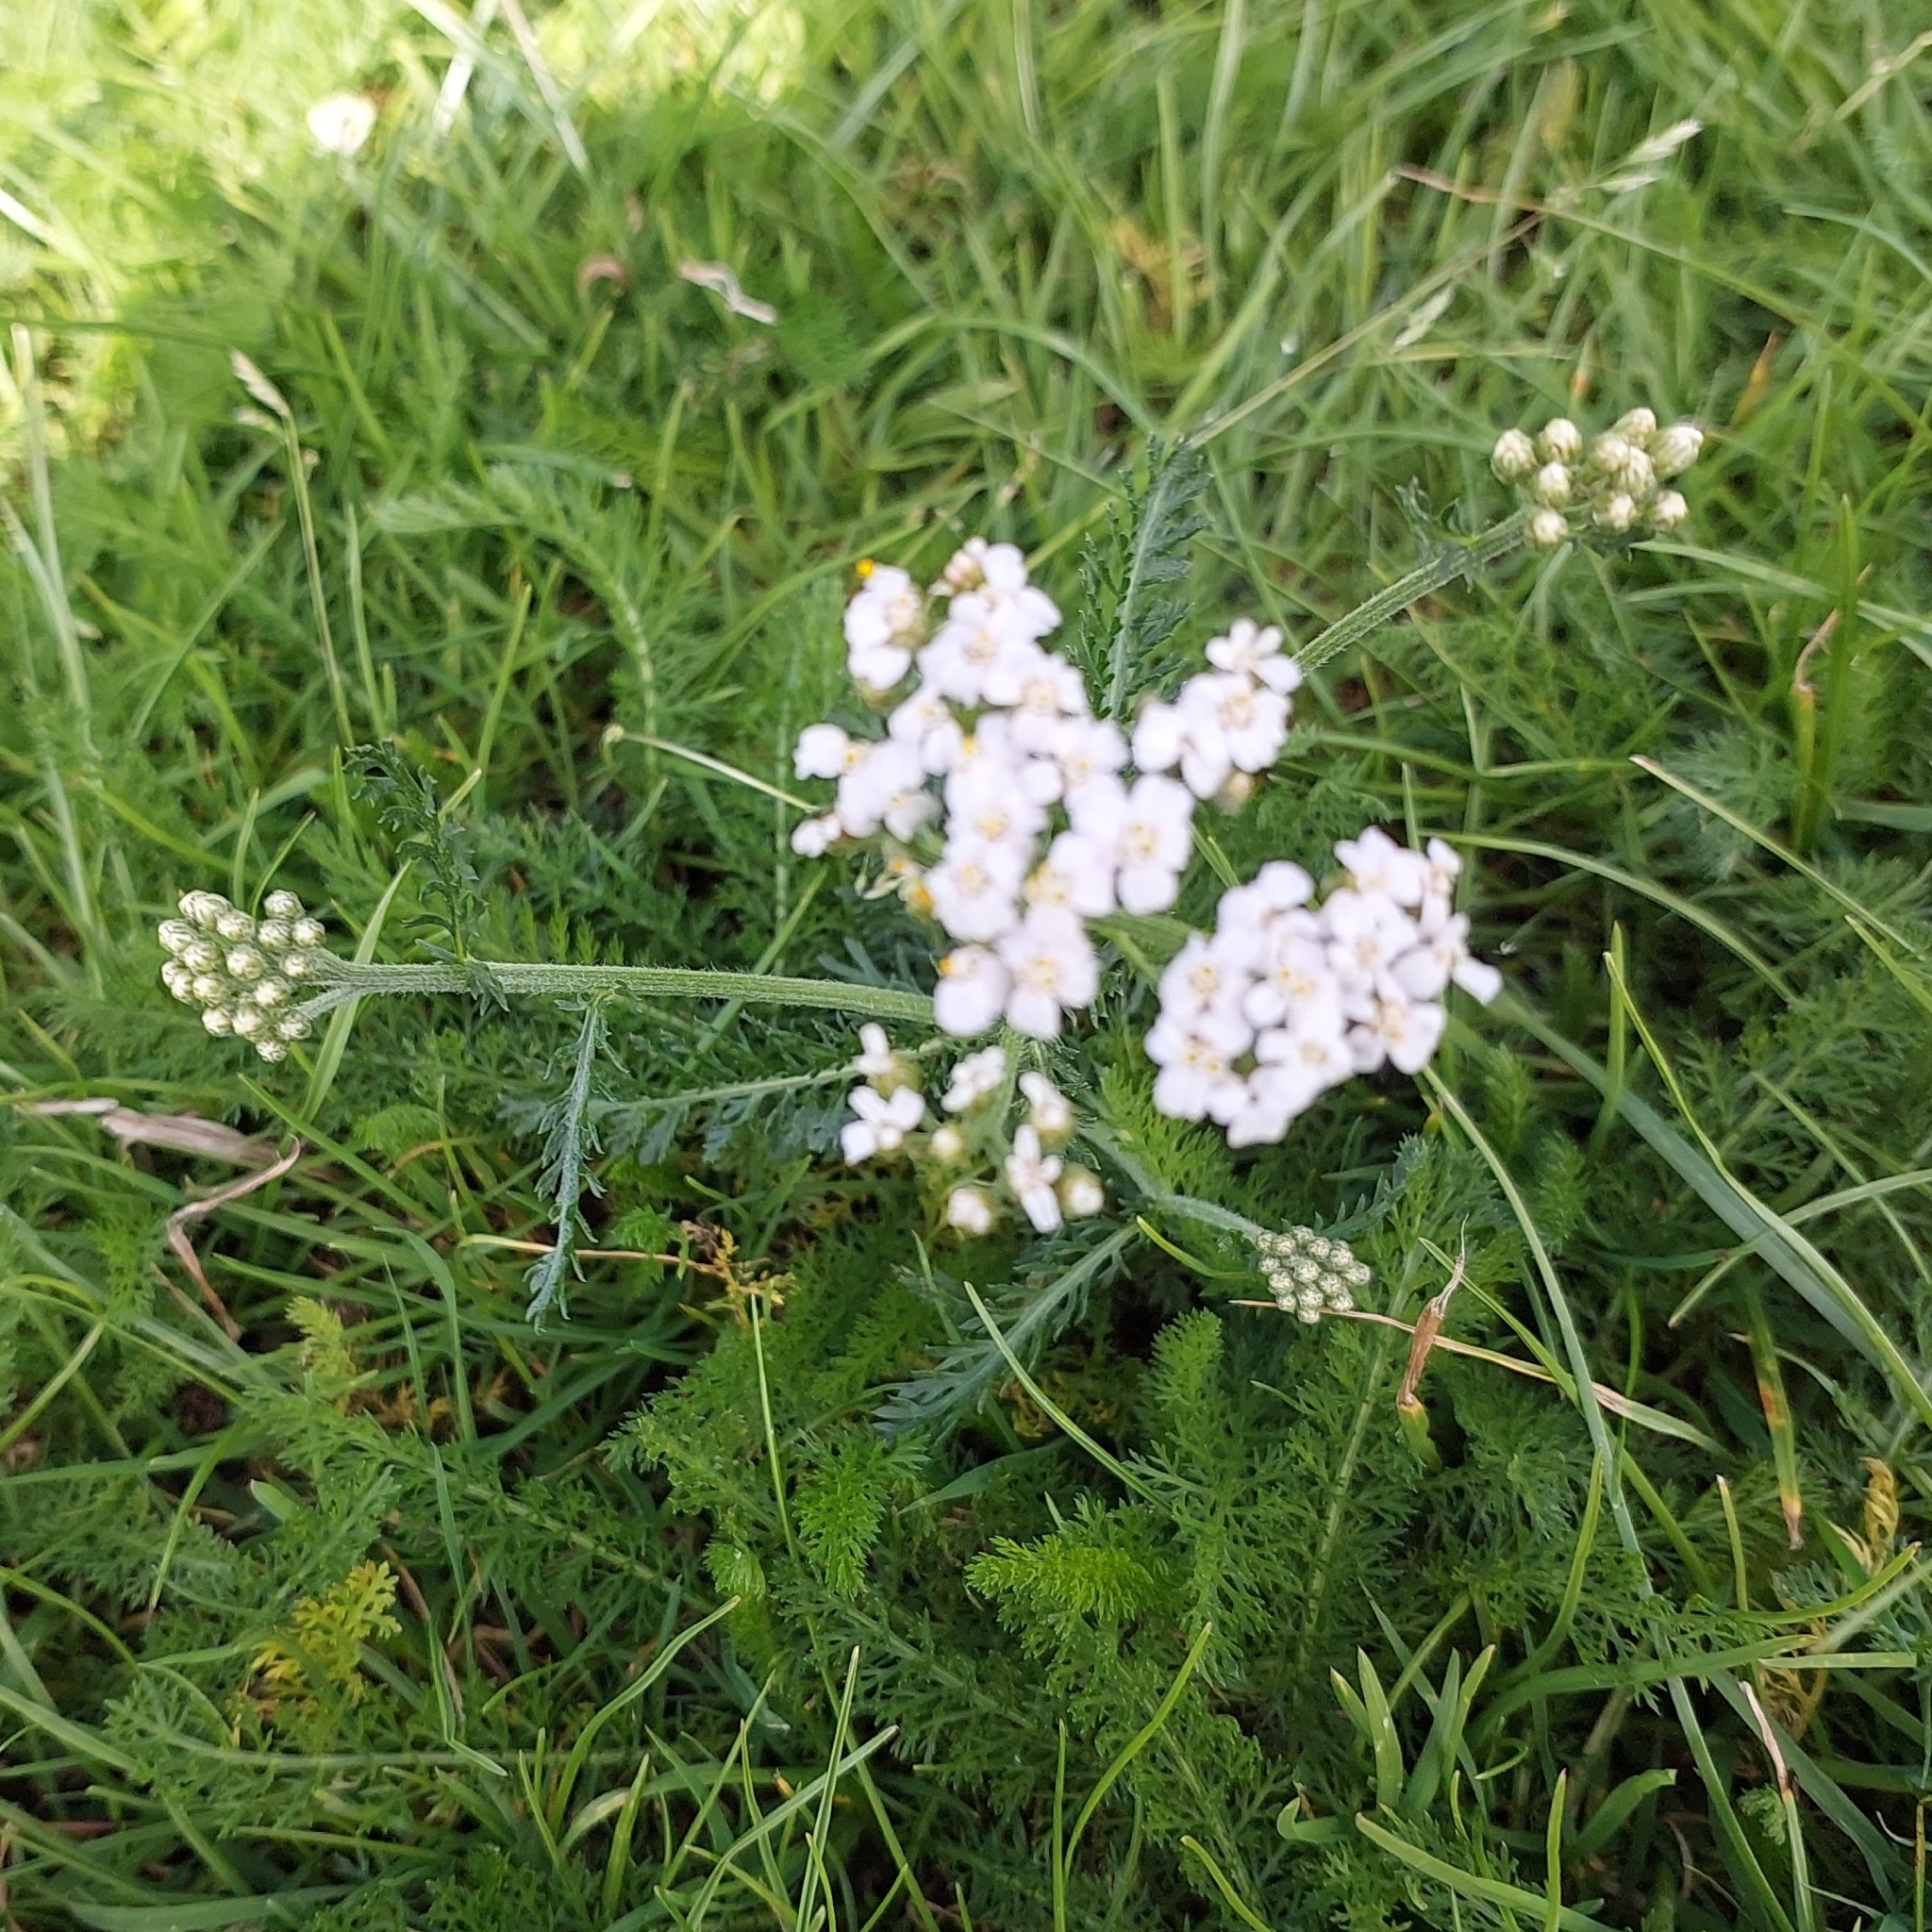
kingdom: Plantae
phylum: Tracheophyta
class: Magnoliopsida
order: Asterales
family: Asteraceae
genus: Achillea
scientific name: Achillea millefolium
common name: Yarrow
